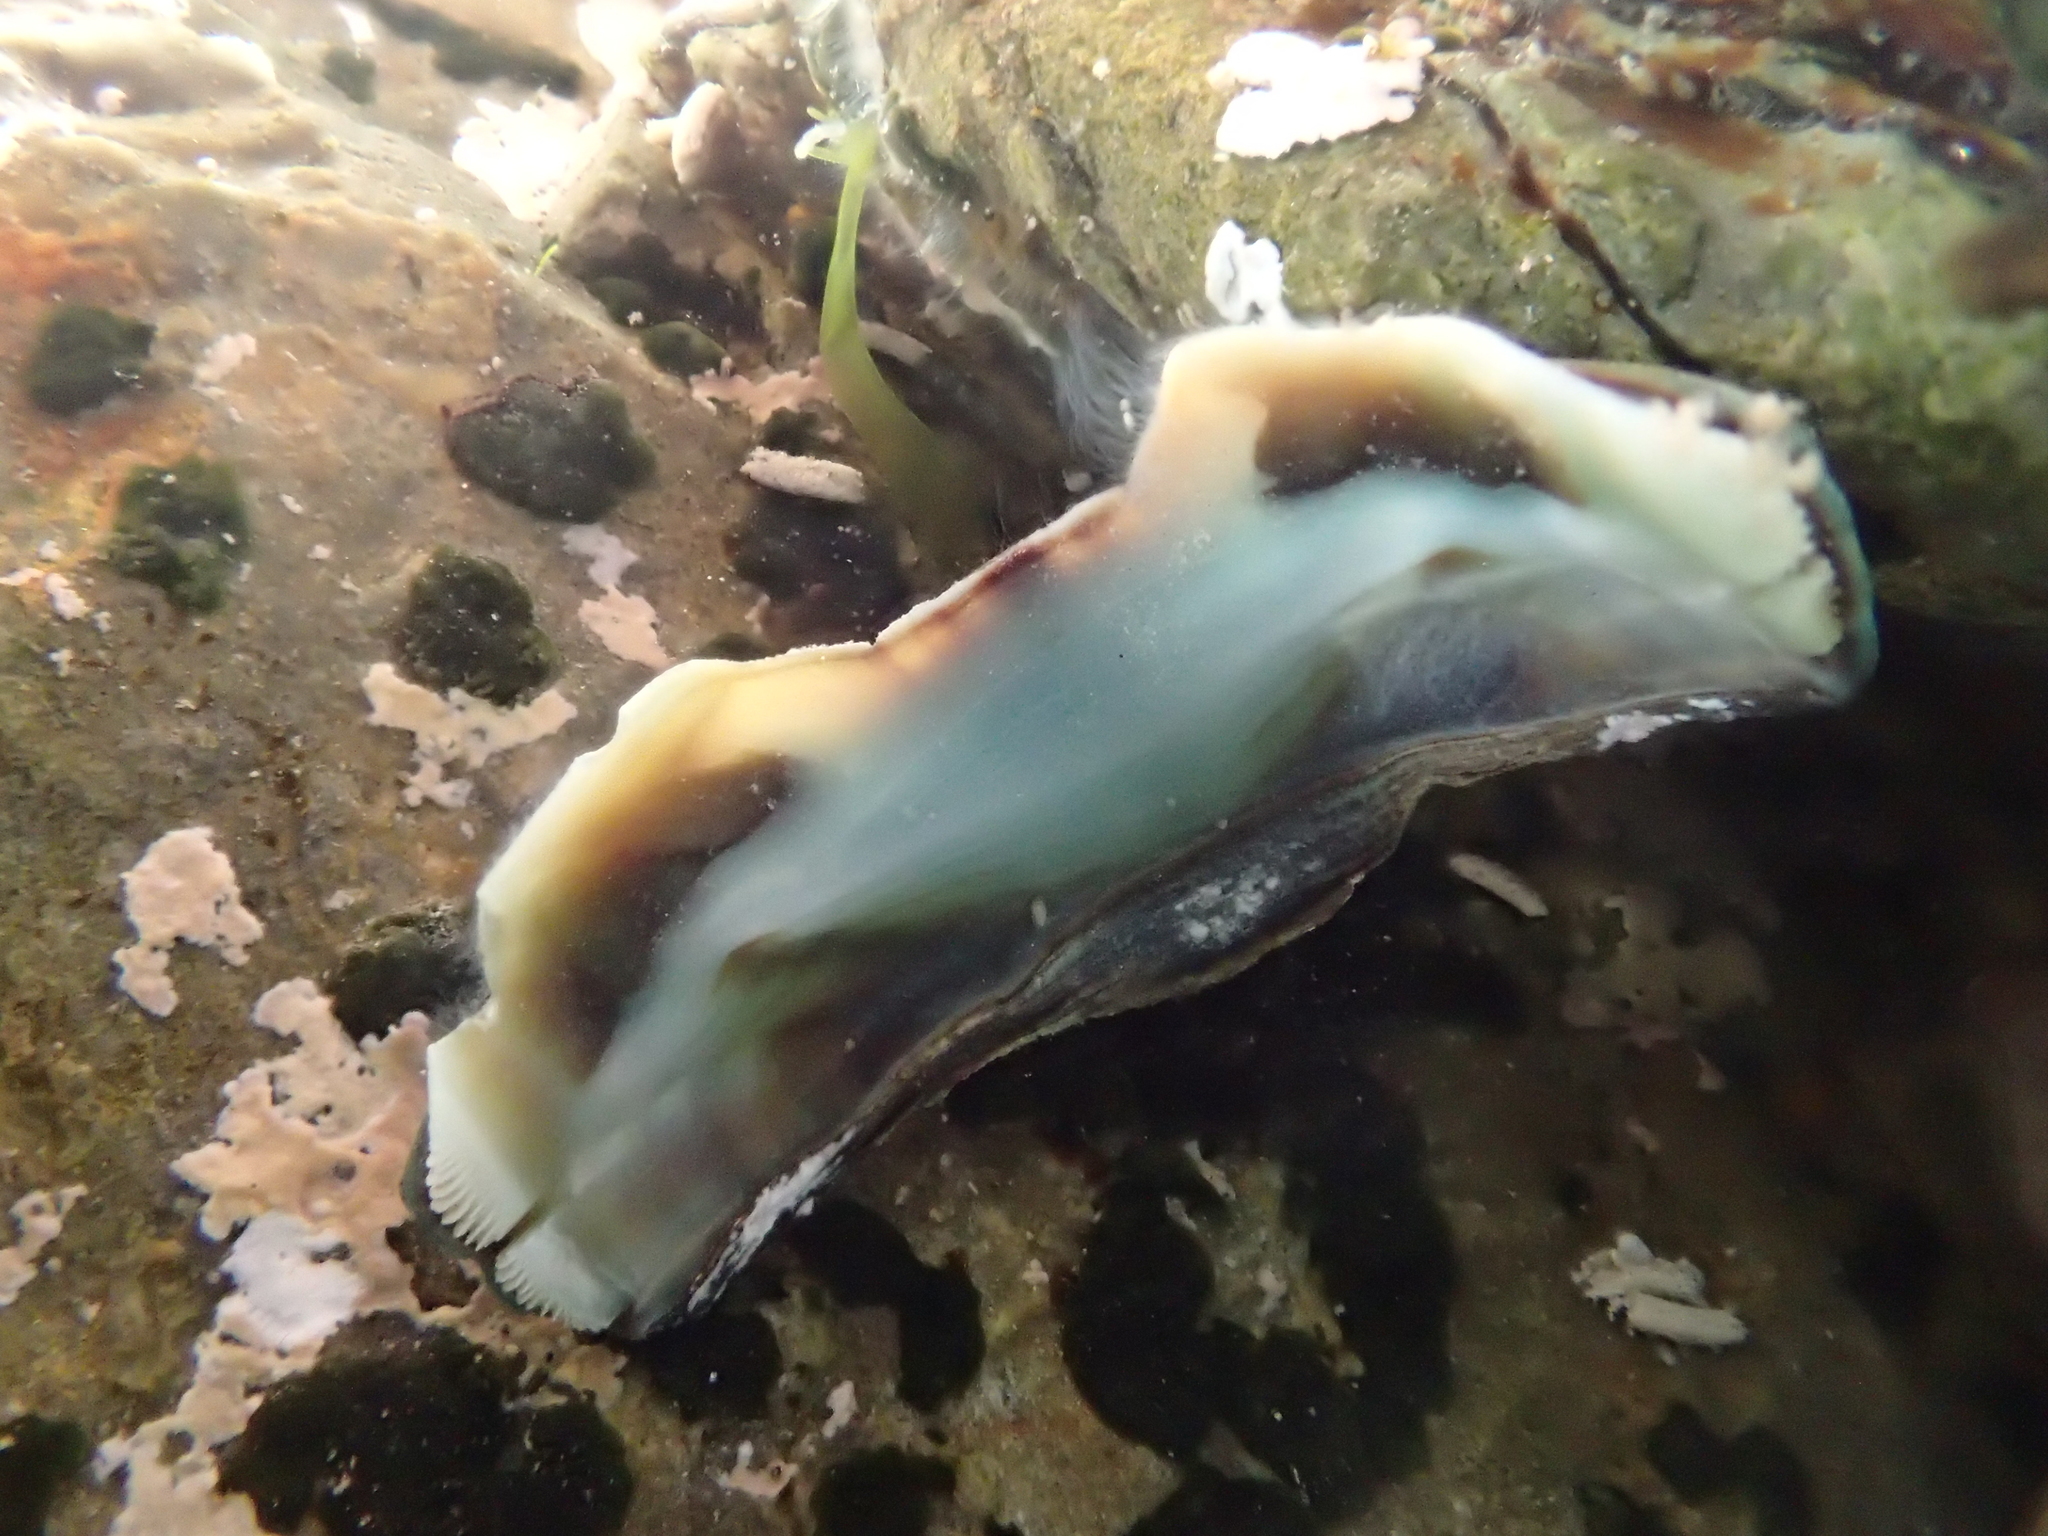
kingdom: Animalia
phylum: Mollusca
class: Polyplacophora
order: Chitonida
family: Chitonidae
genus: Sypharochiton
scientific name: Sypharochiton pelliserpentis
